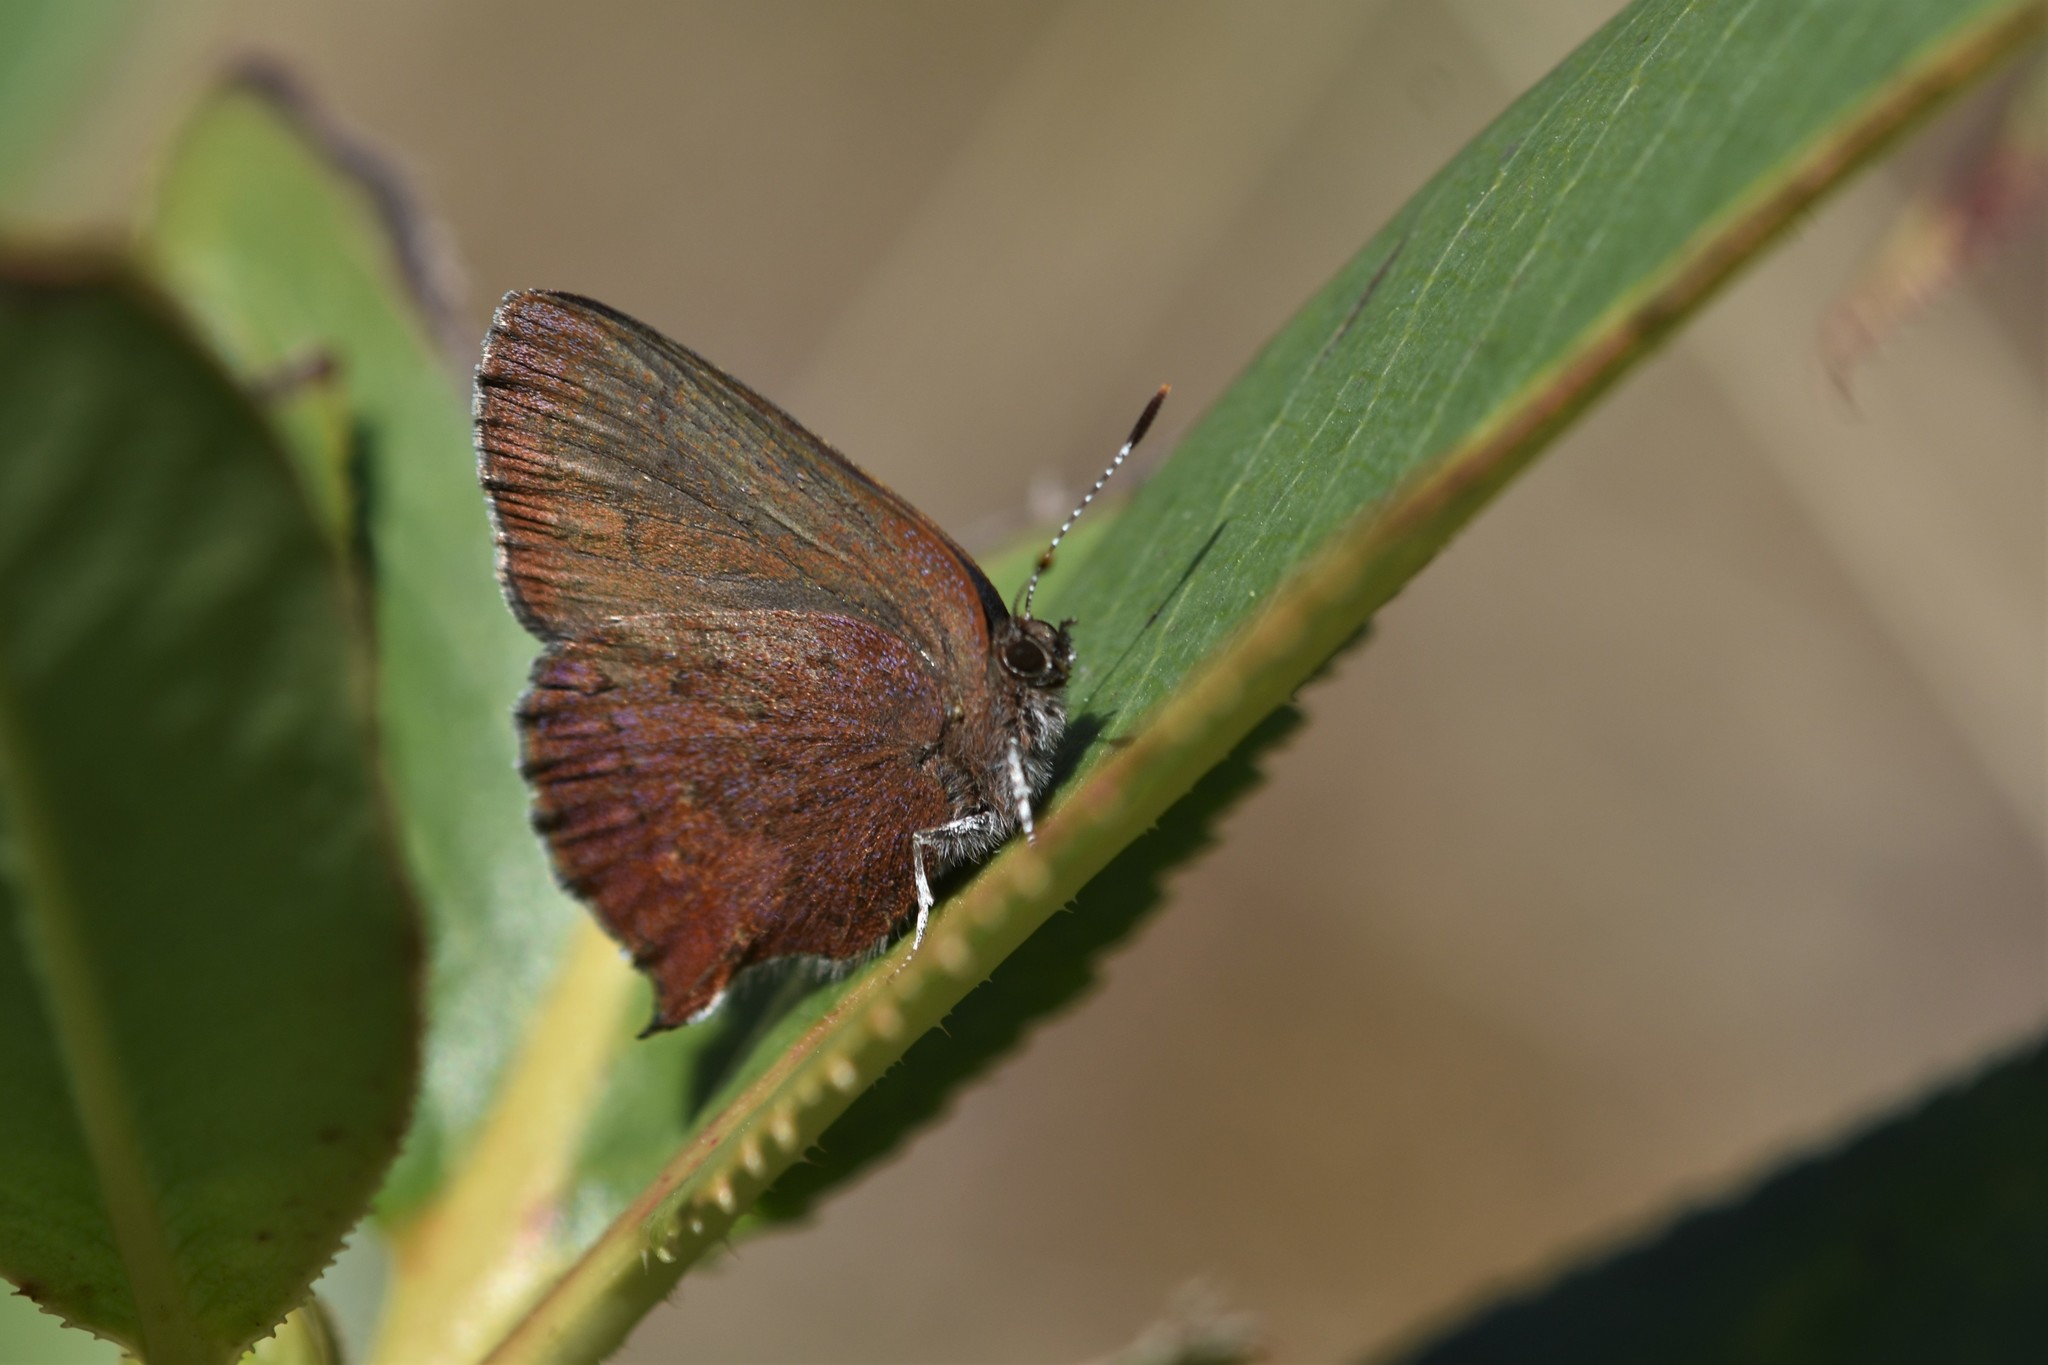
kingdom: Animalia
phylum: Arthropoda
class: Insecta
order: Lepidoptera
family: Lycaenidae
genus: Incisalia
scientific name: Incisalia irioides
